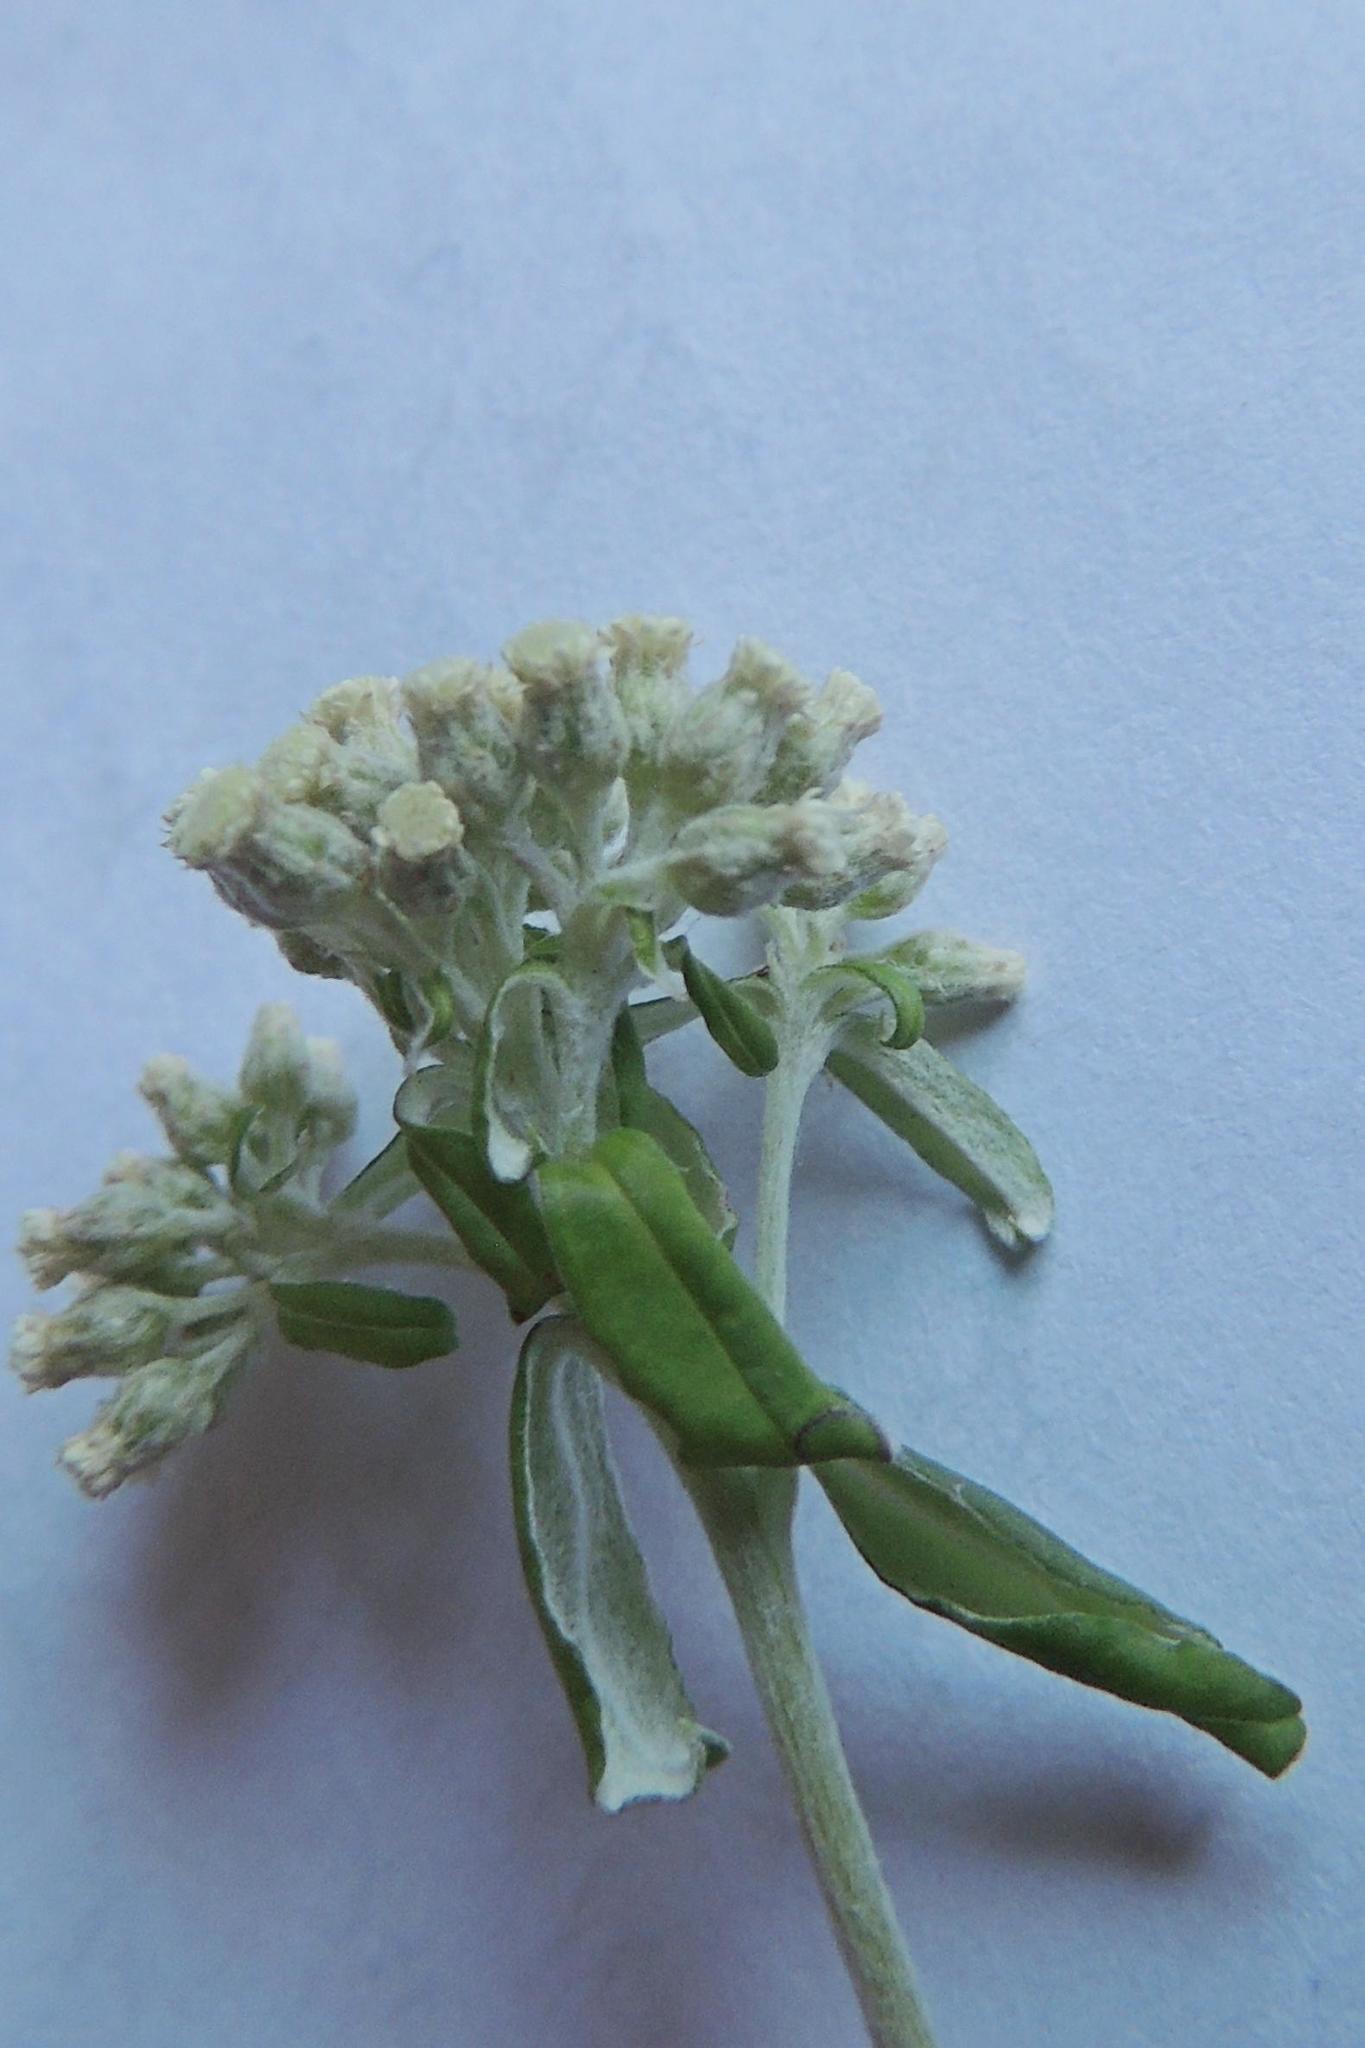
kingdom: Plantae
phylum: Tracheophyta
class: Magnoliopsida
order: Asterales
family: Asteraceae
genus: Plecostachys
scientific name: Plecostachys polifolia
